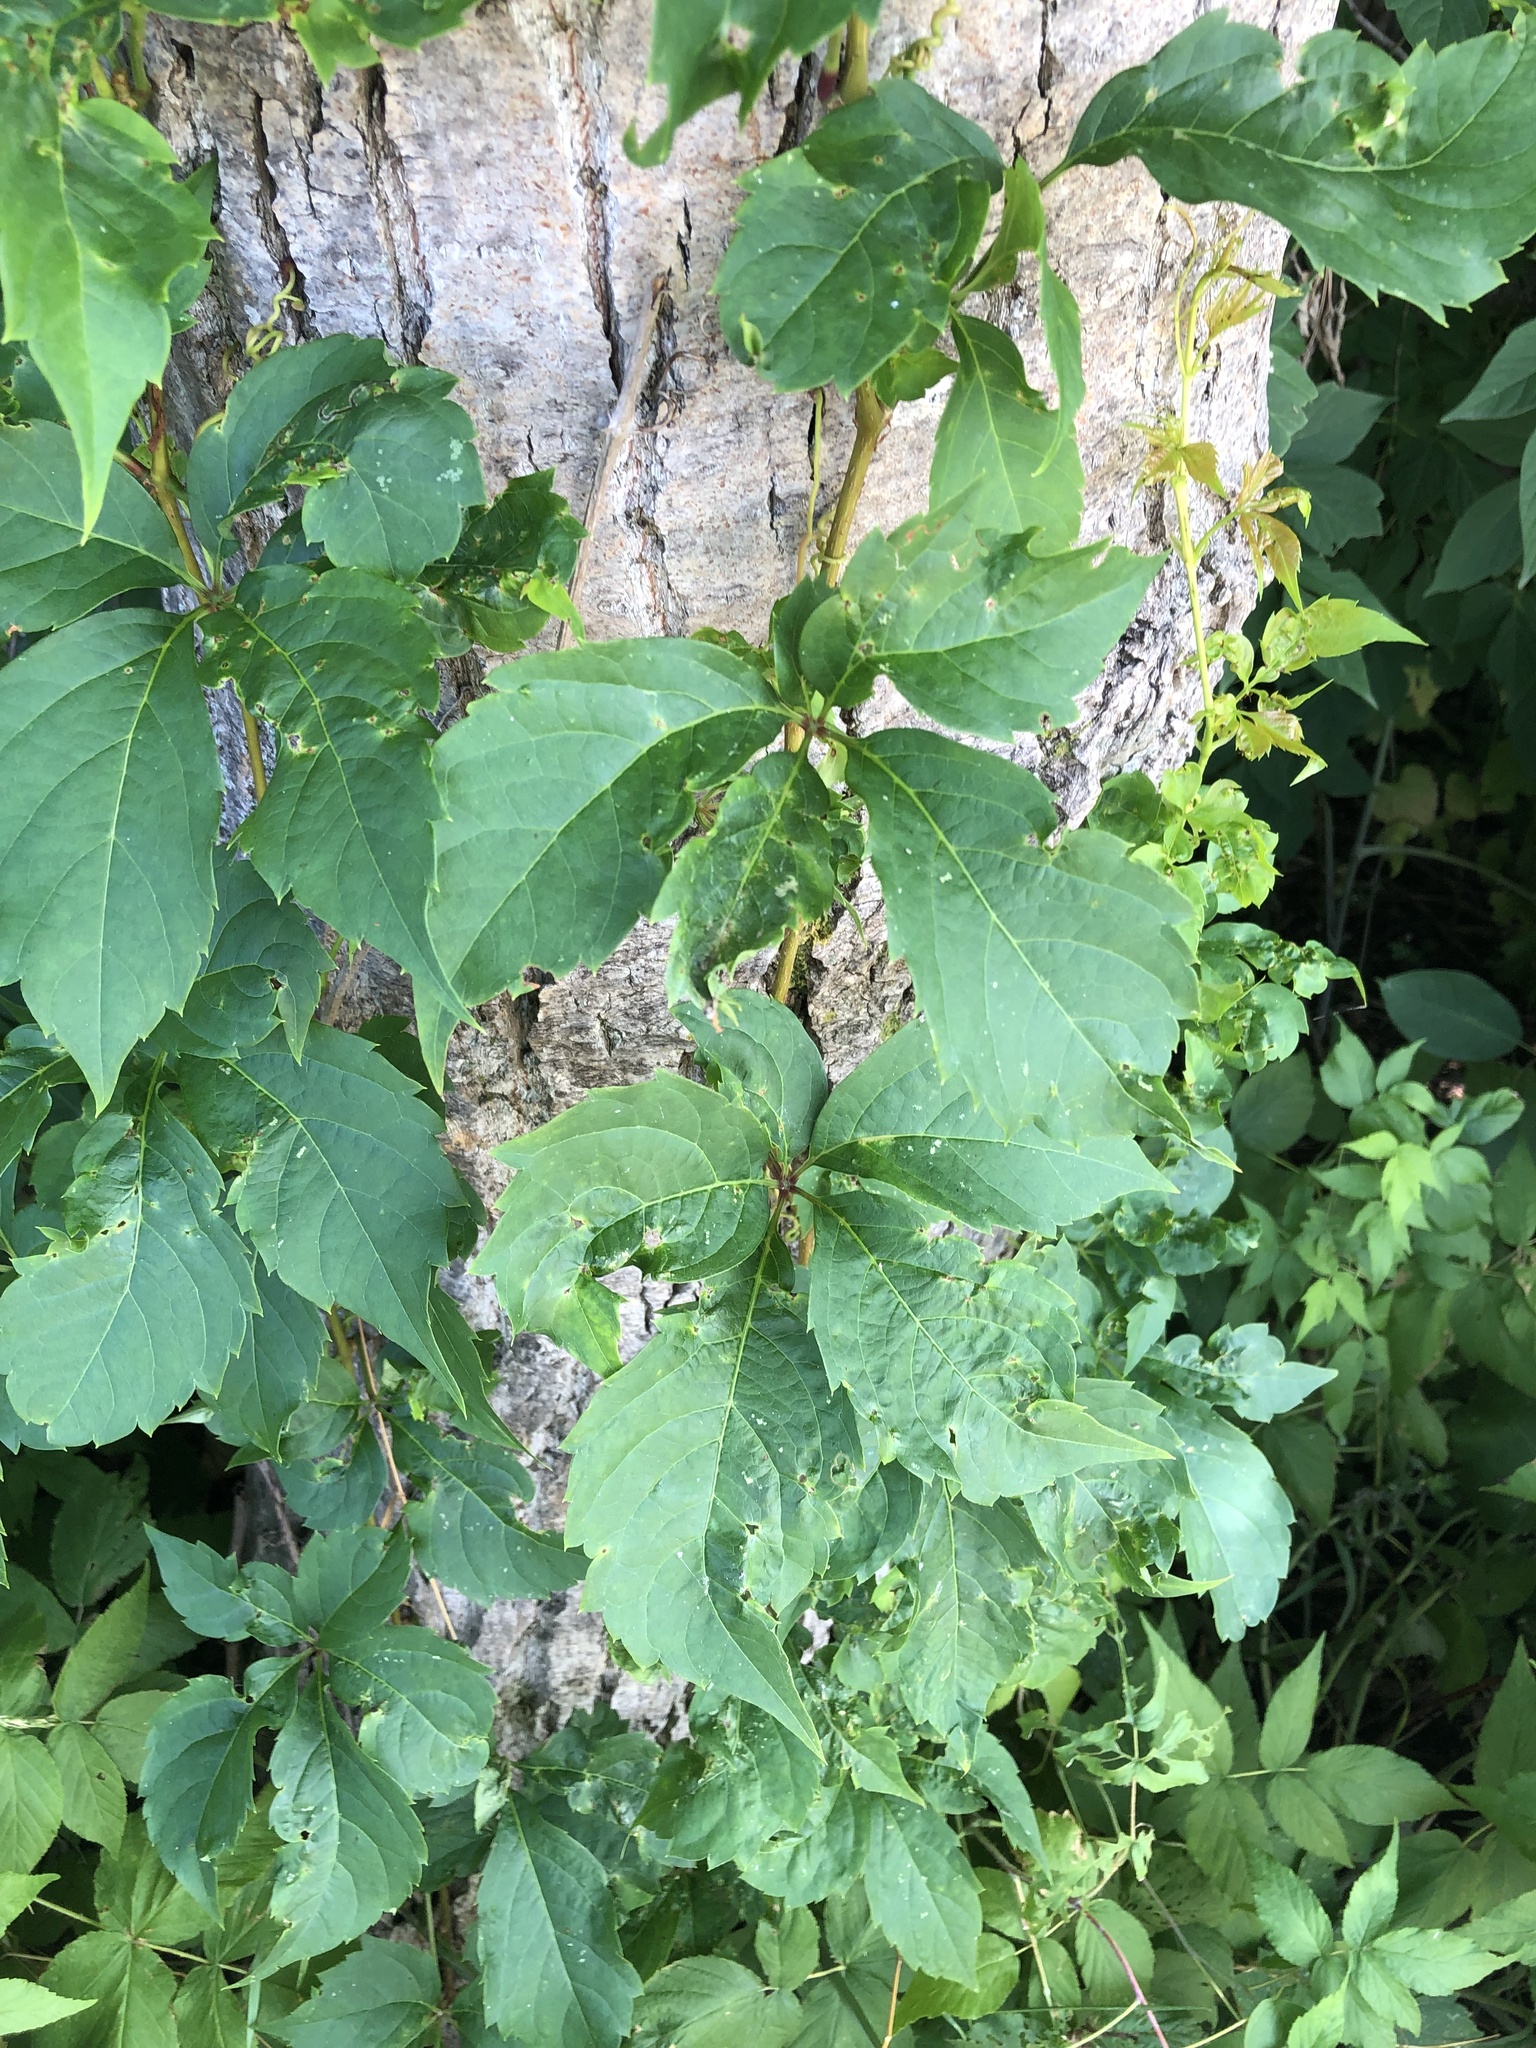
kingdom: Plantae
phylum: Tracheophyta
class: Magnoliopsida
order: Vitales
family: Vitaceae
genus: Parthenocissus
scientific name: Parthenocissus inserta
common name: False virginia-creeper
